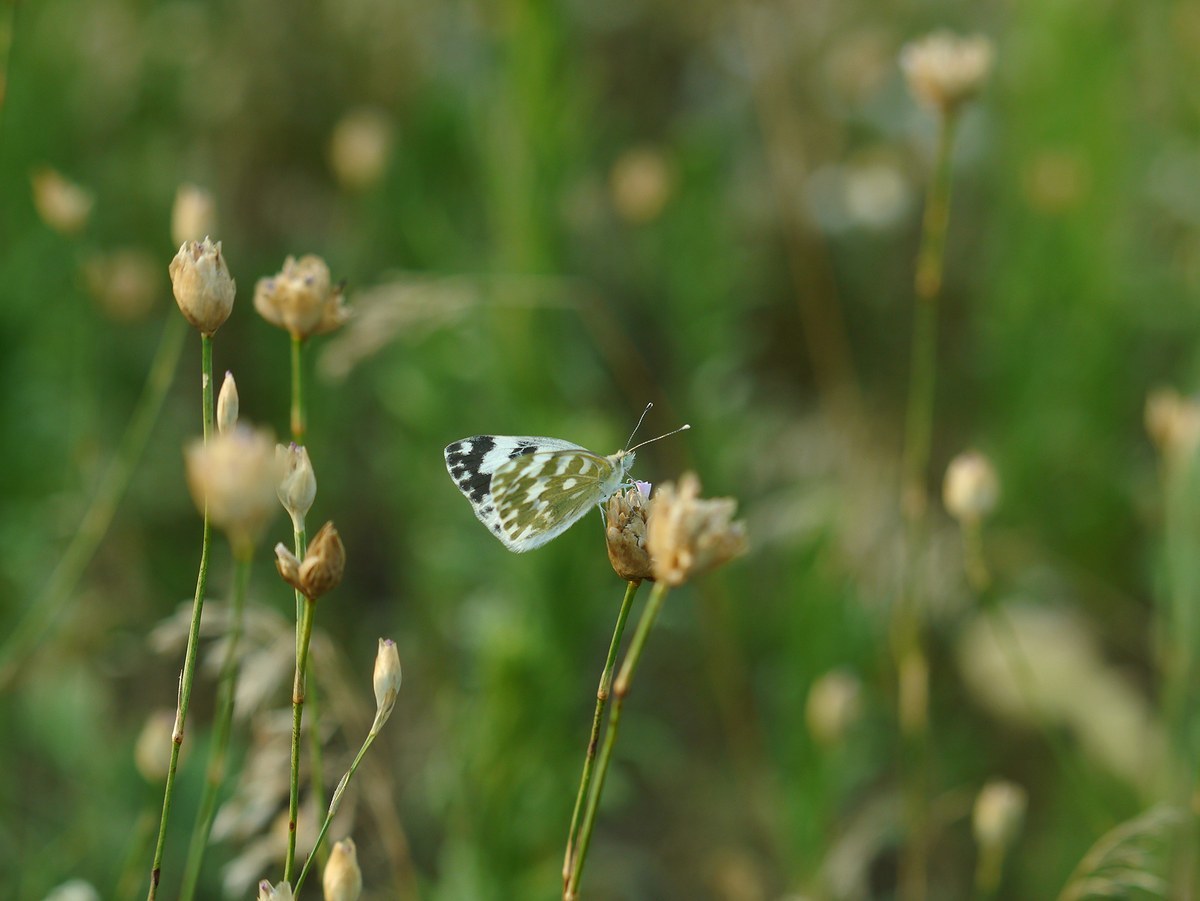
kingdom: Animalia
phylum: Arthropoda
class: Insecta
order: Lepidoptera
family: Pieridae
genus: Pontia
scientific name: Pontia edusa
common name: Eastern bath white
